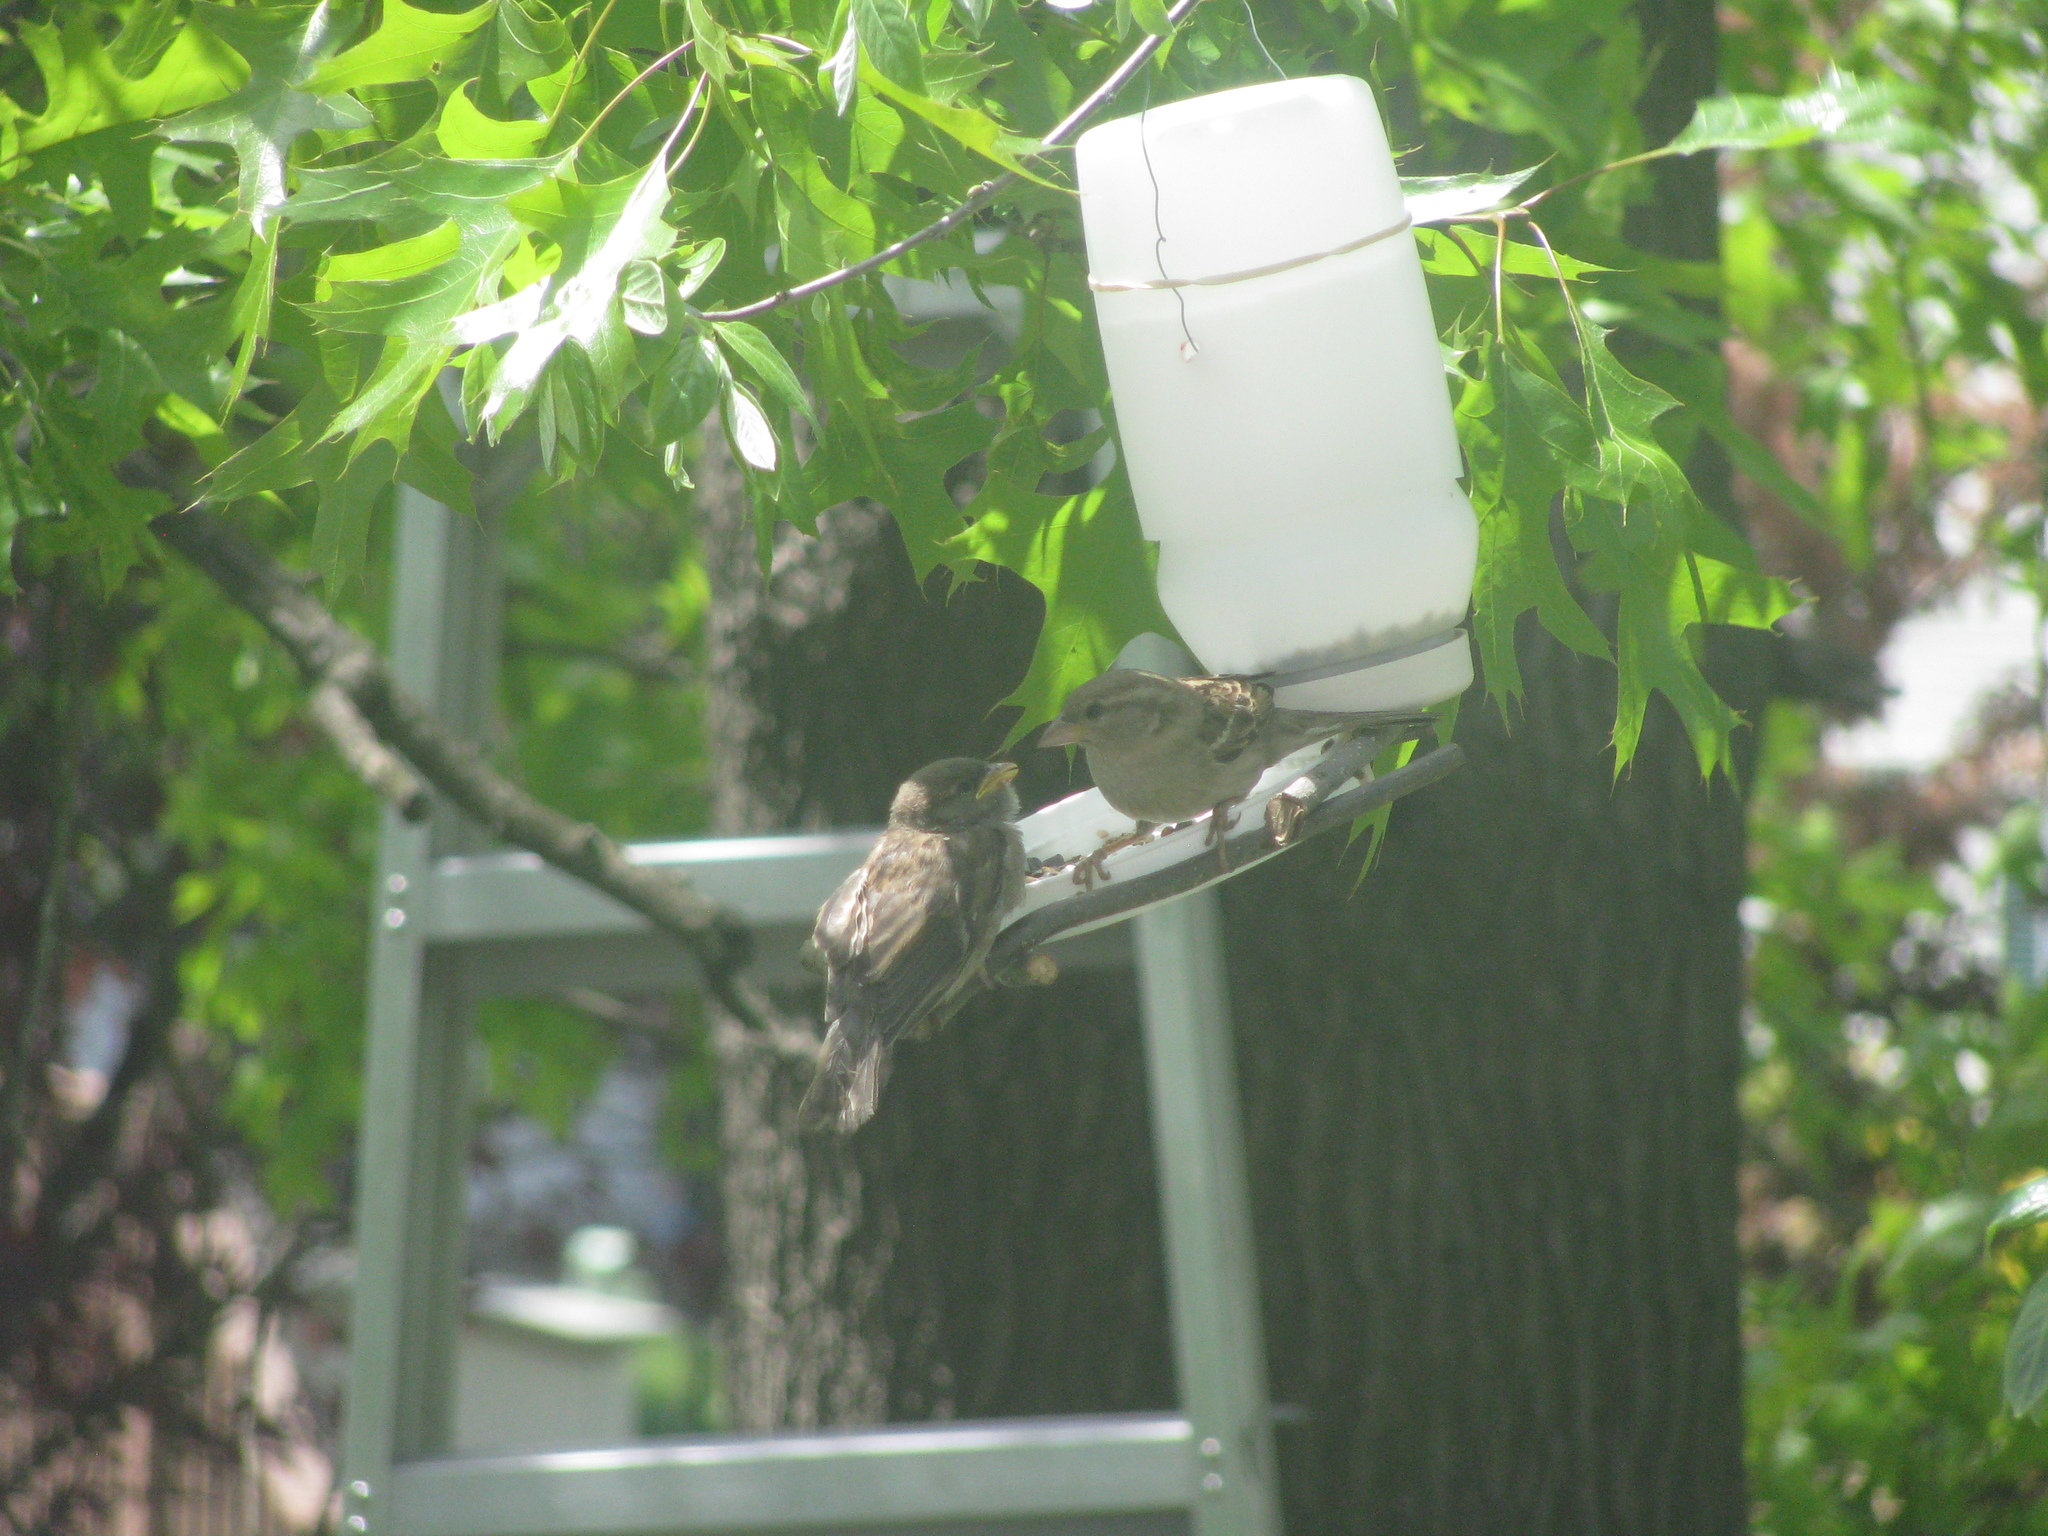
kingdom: Animalia
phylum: Chordata
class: Aves
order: Passeriformes
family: Passeridae
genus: Passer
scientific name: Passer domesticus
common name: House sparrow
